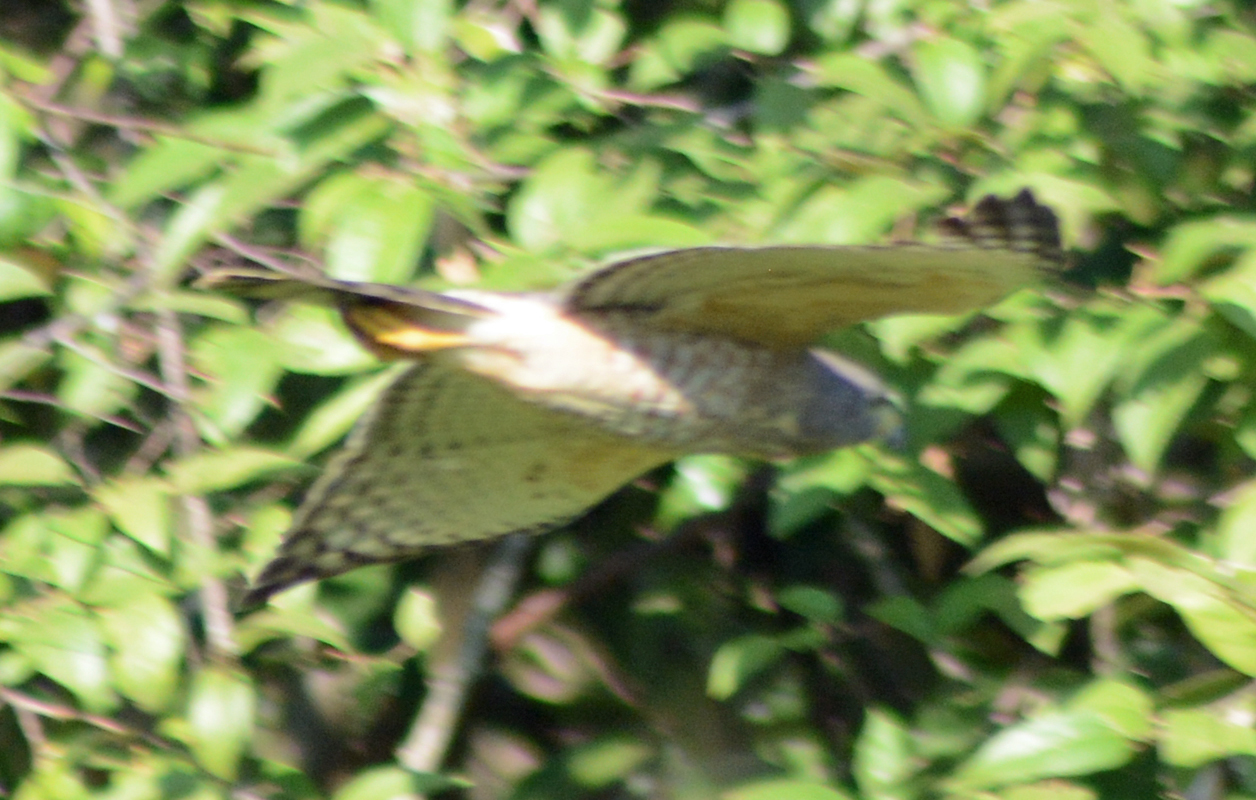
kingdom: Animalia
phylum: Chordata
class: Aves
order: Accipitriformes
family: Accipitridae
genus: Rupornis
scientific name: Rupornis magnirostris
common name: Roadside hawk
